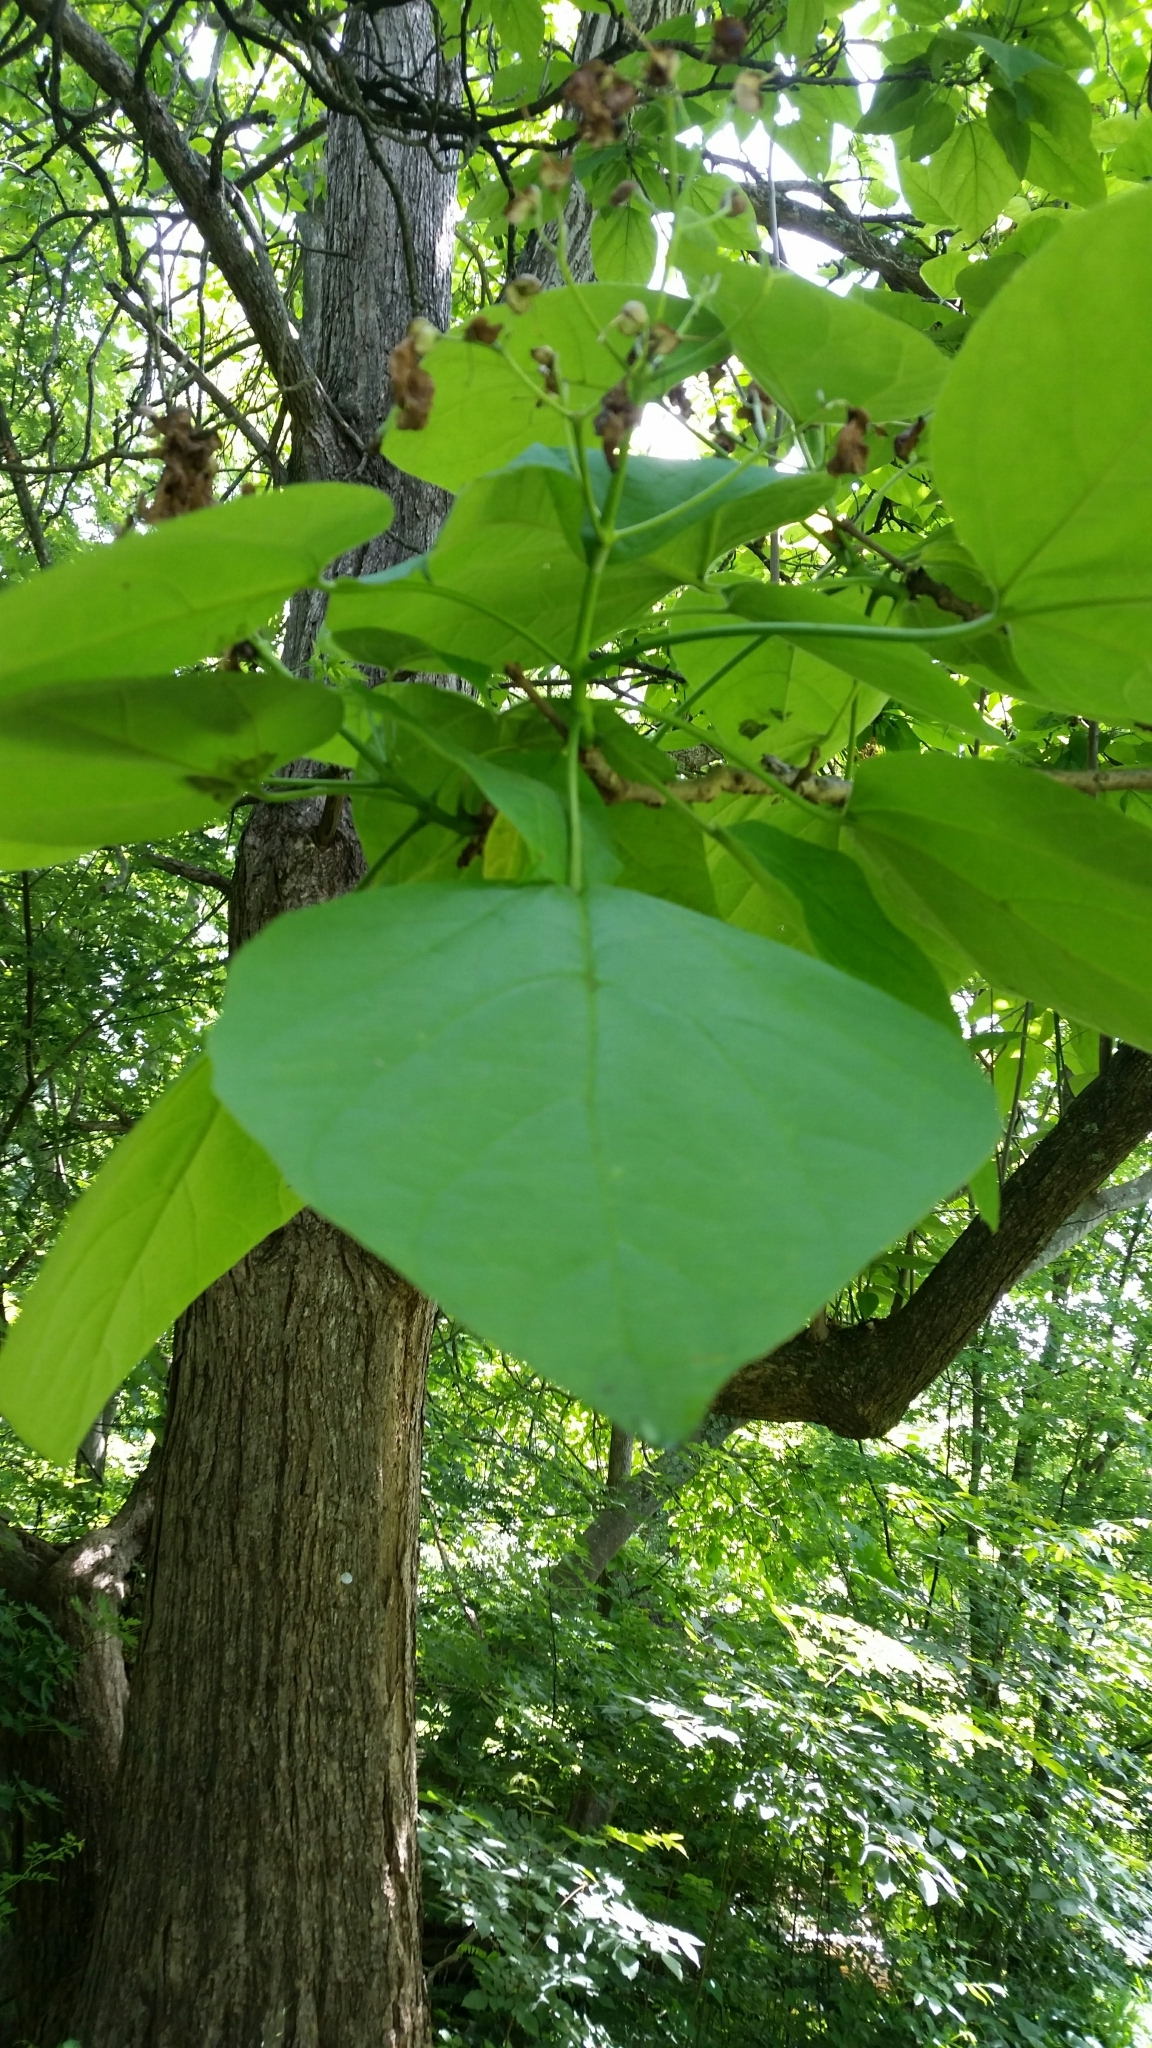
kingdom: Plantae
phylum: Tracheophyta
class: Magnoliopsida
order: Lamiales
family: Bignoniaceae
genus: Catalpa
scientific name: Catalpa
